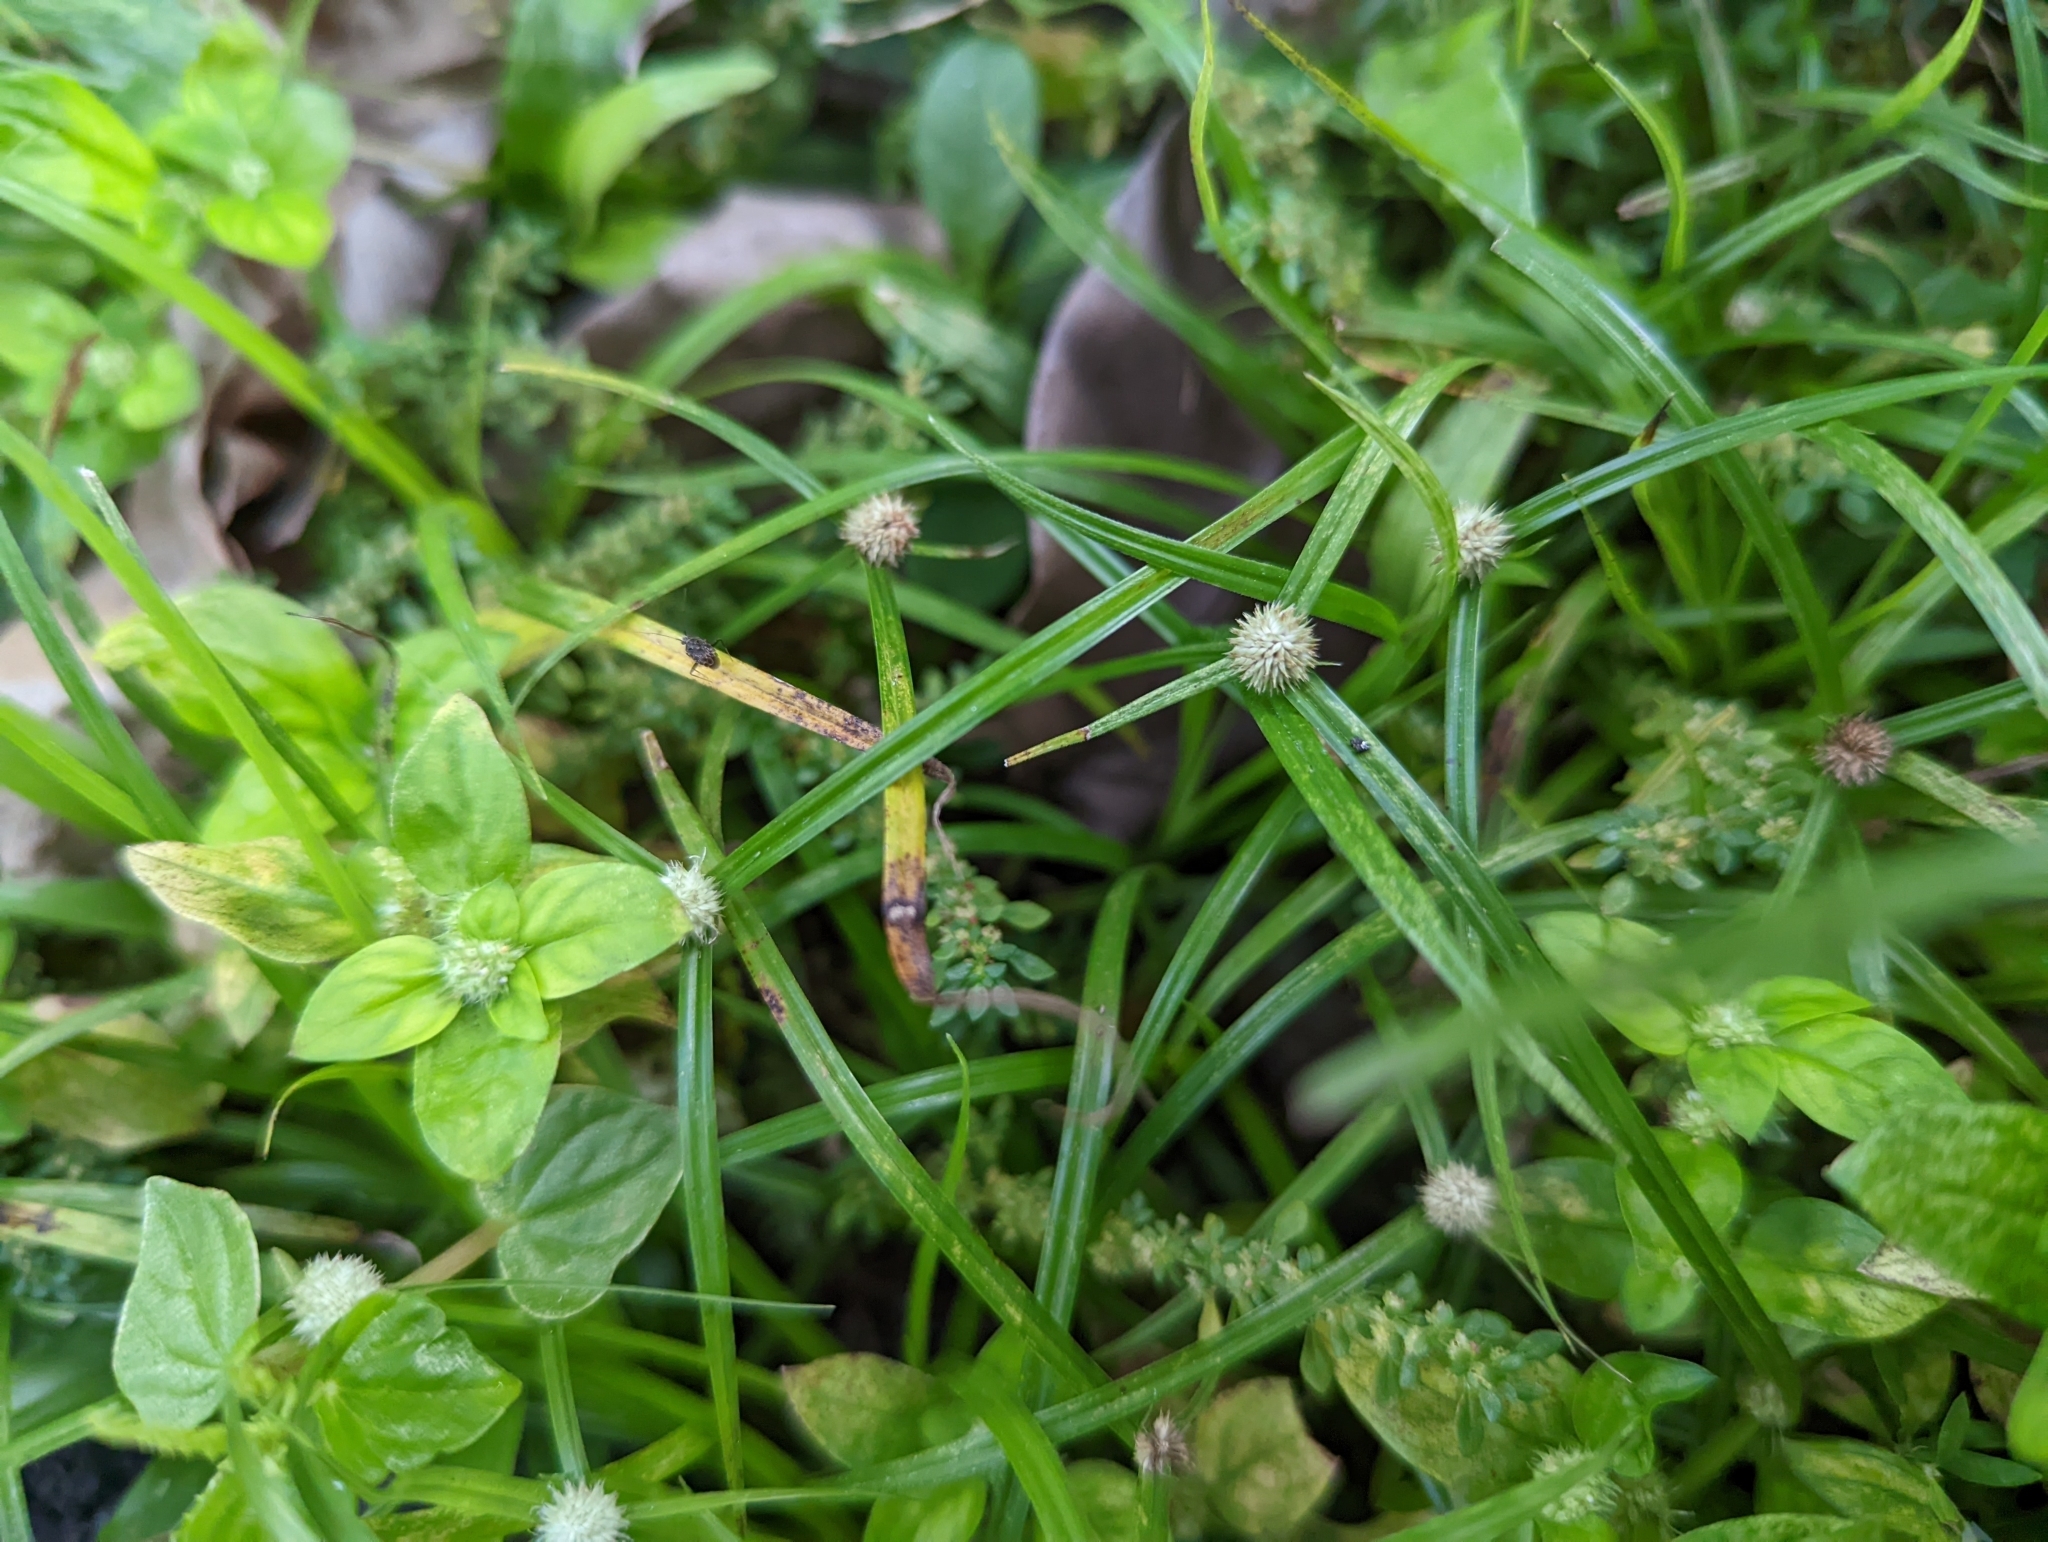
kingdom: Plantae
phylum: Tracheophyta
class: Liliopsida
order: Poales
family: Cyperaceae
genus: Cyperus
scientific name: Cyperus mindorensis
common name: Flatsedge
